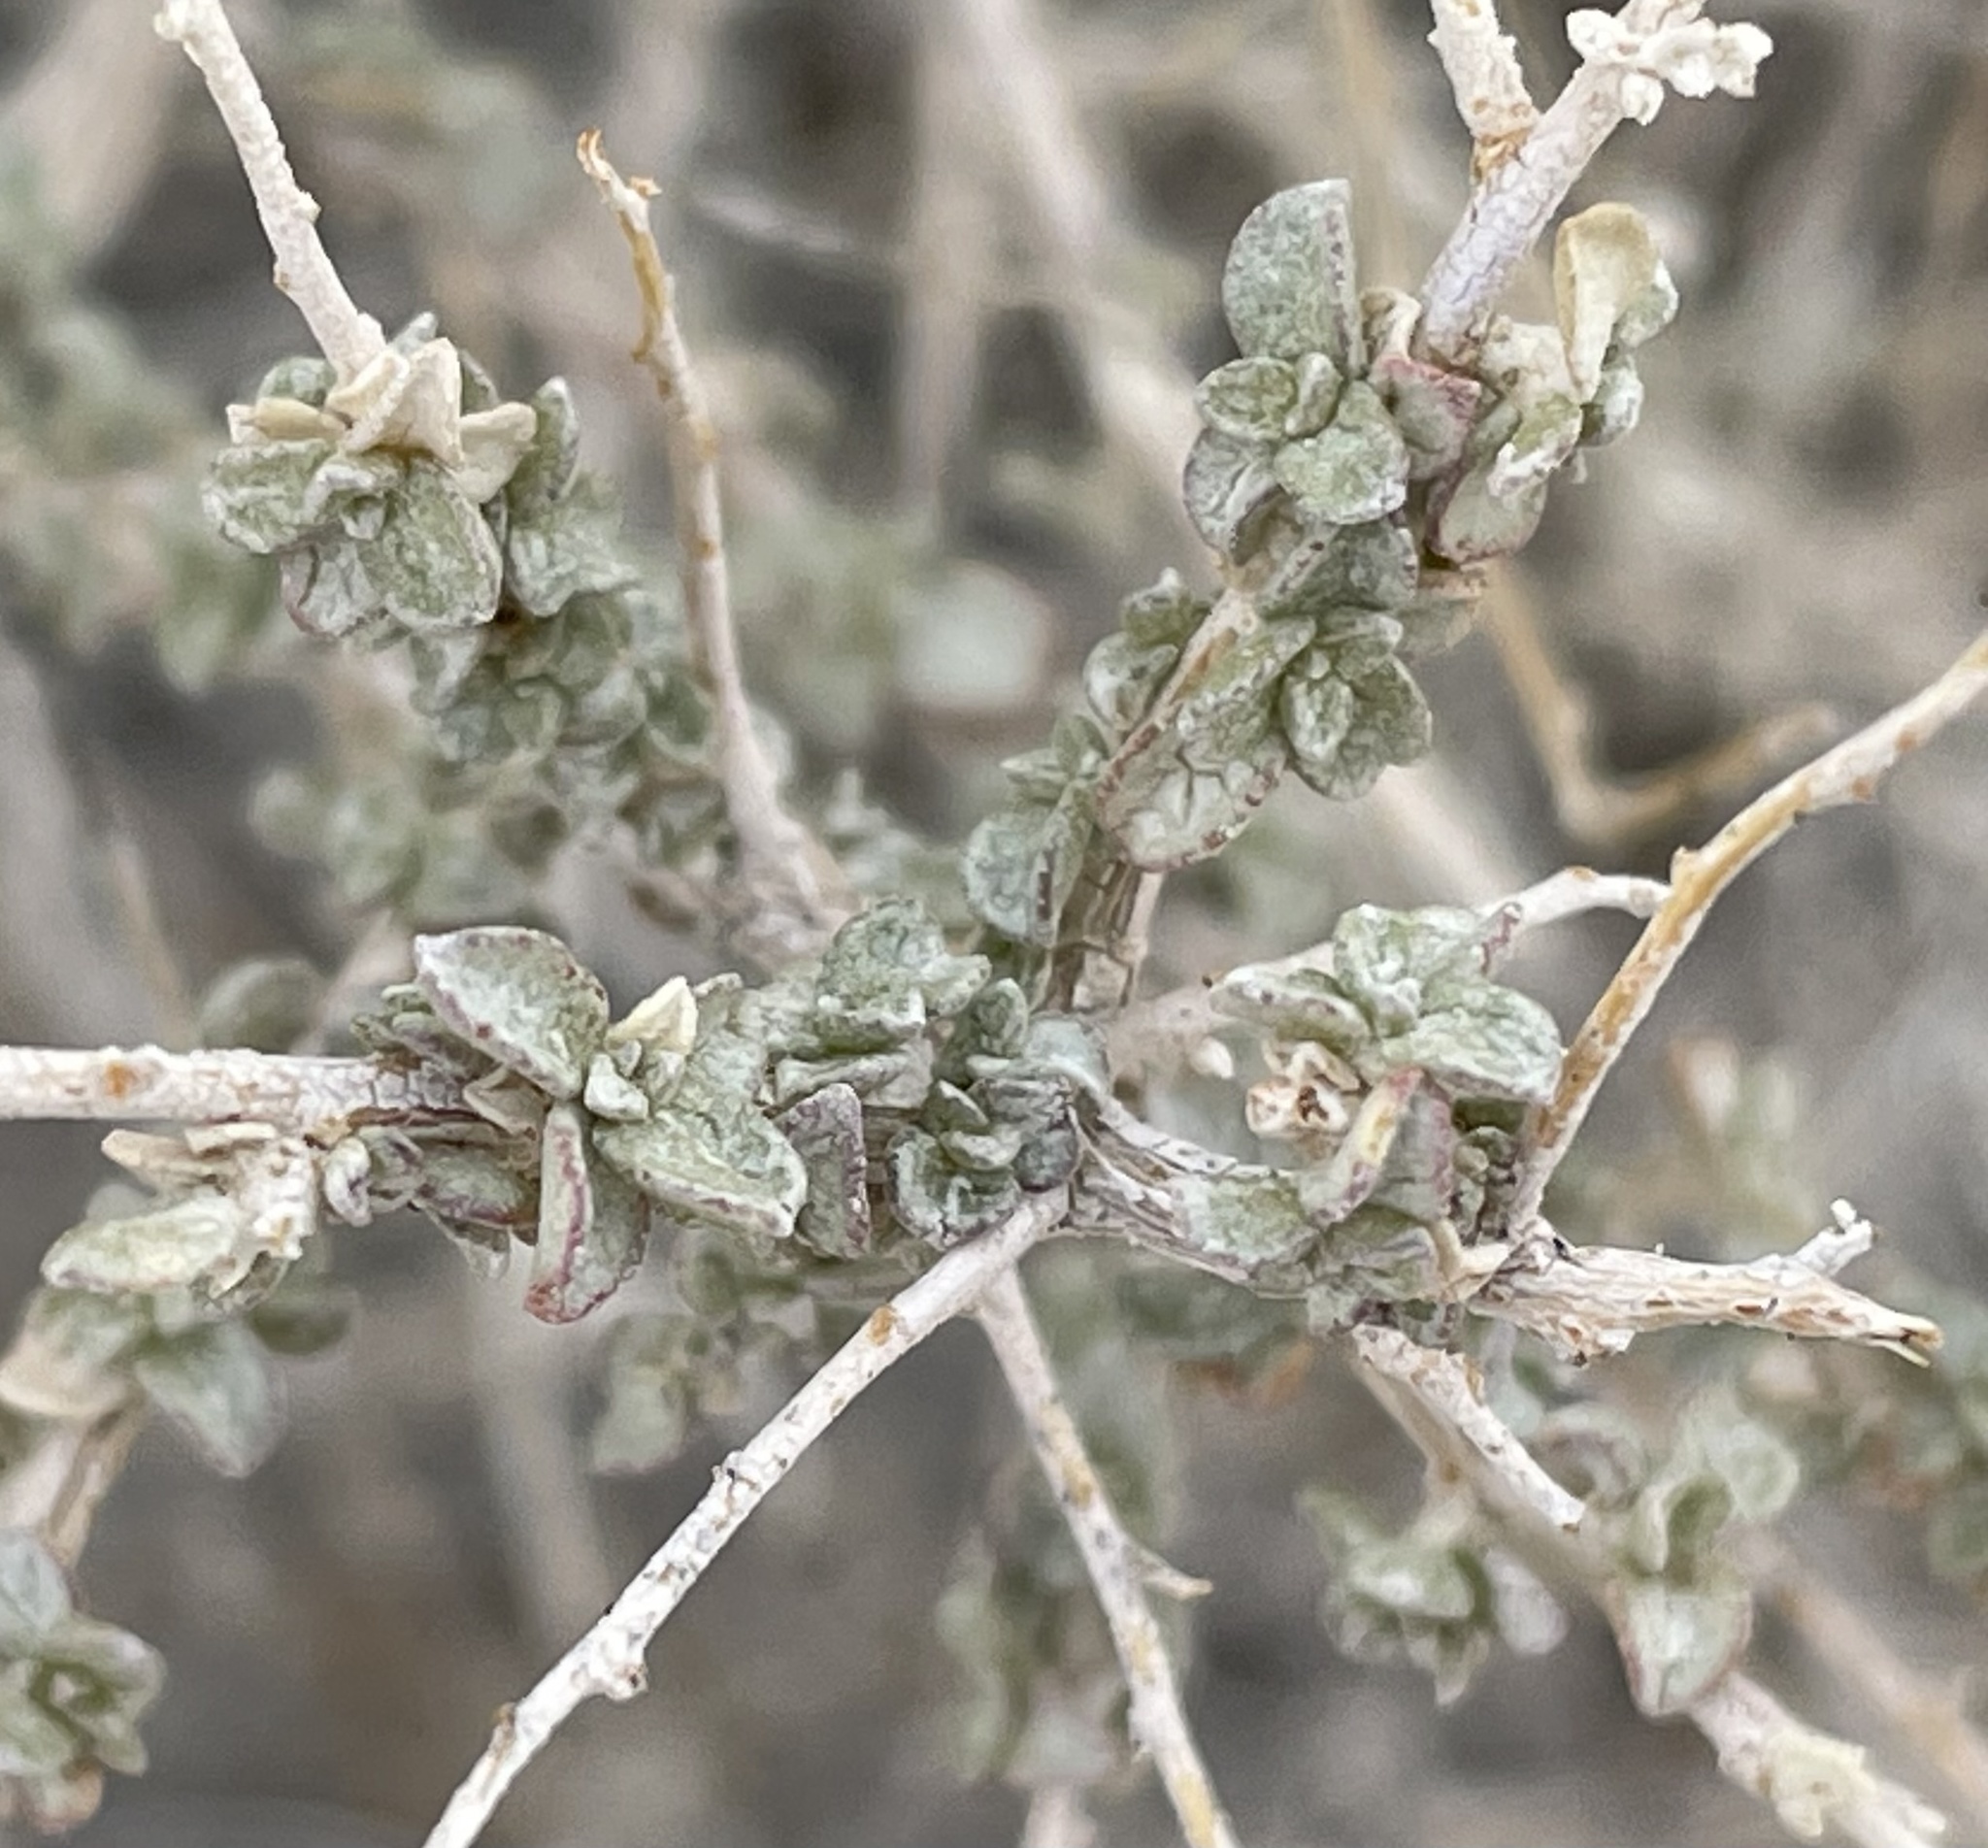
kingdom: Plantae
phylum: Tracheophyta
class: Magnoliopsida
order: Caryophyllales
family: Amaranthaceae
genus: Atriplex
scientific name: Atriplex polycarpa
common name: Desert saltbush
